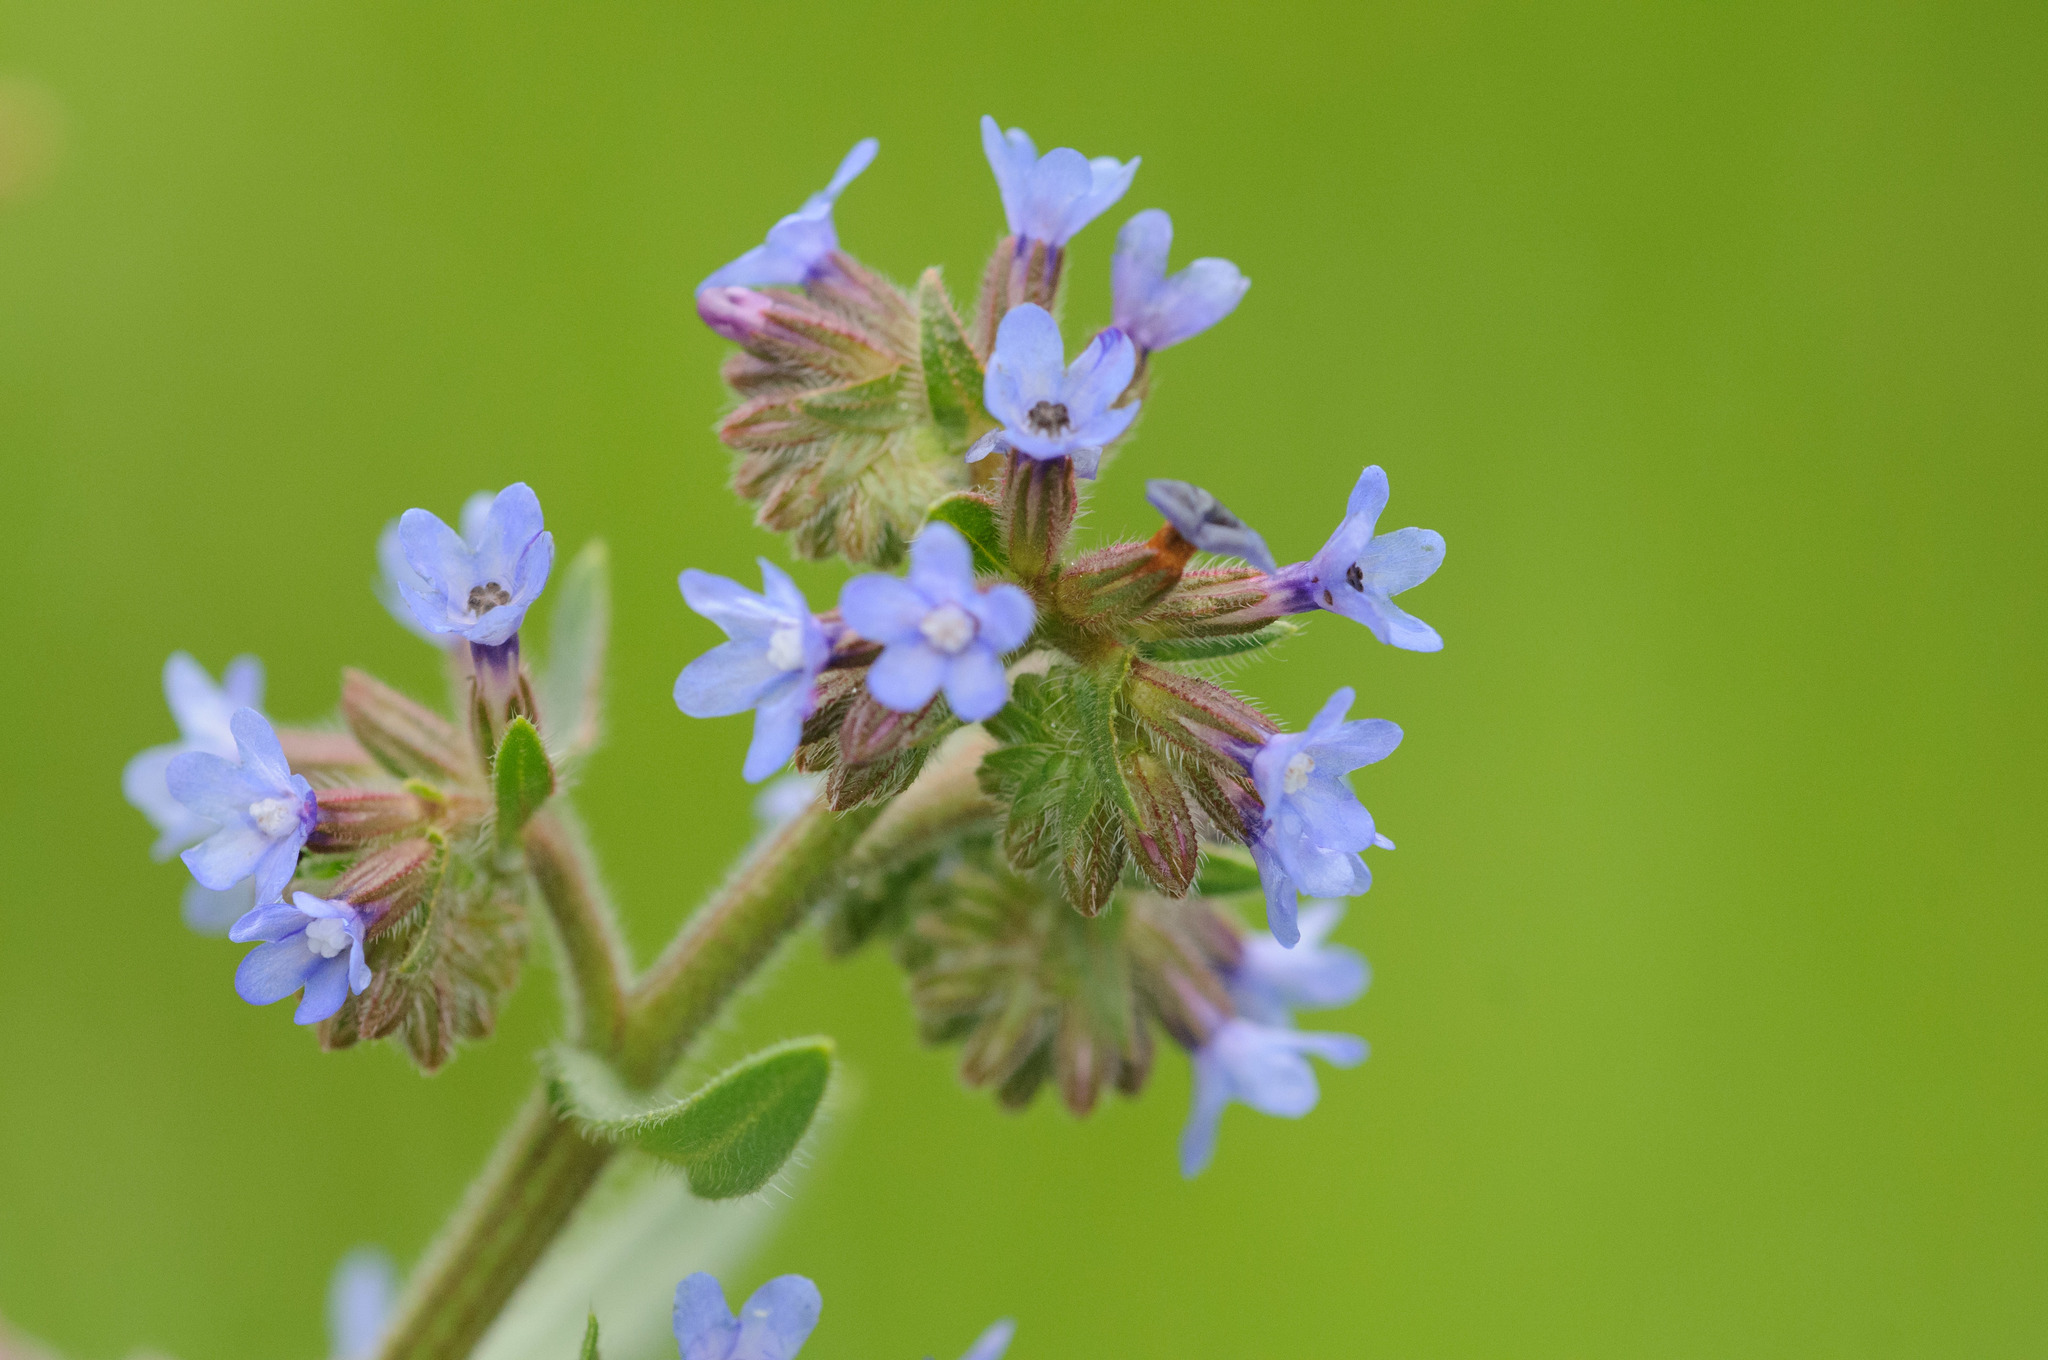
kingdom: Plantae
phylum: Tracheophyta
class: Magnoliopsida
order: Boraginales
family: Boraginaceae
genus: Anchusa
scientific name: Anchusa officinalis
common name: Alkanet
